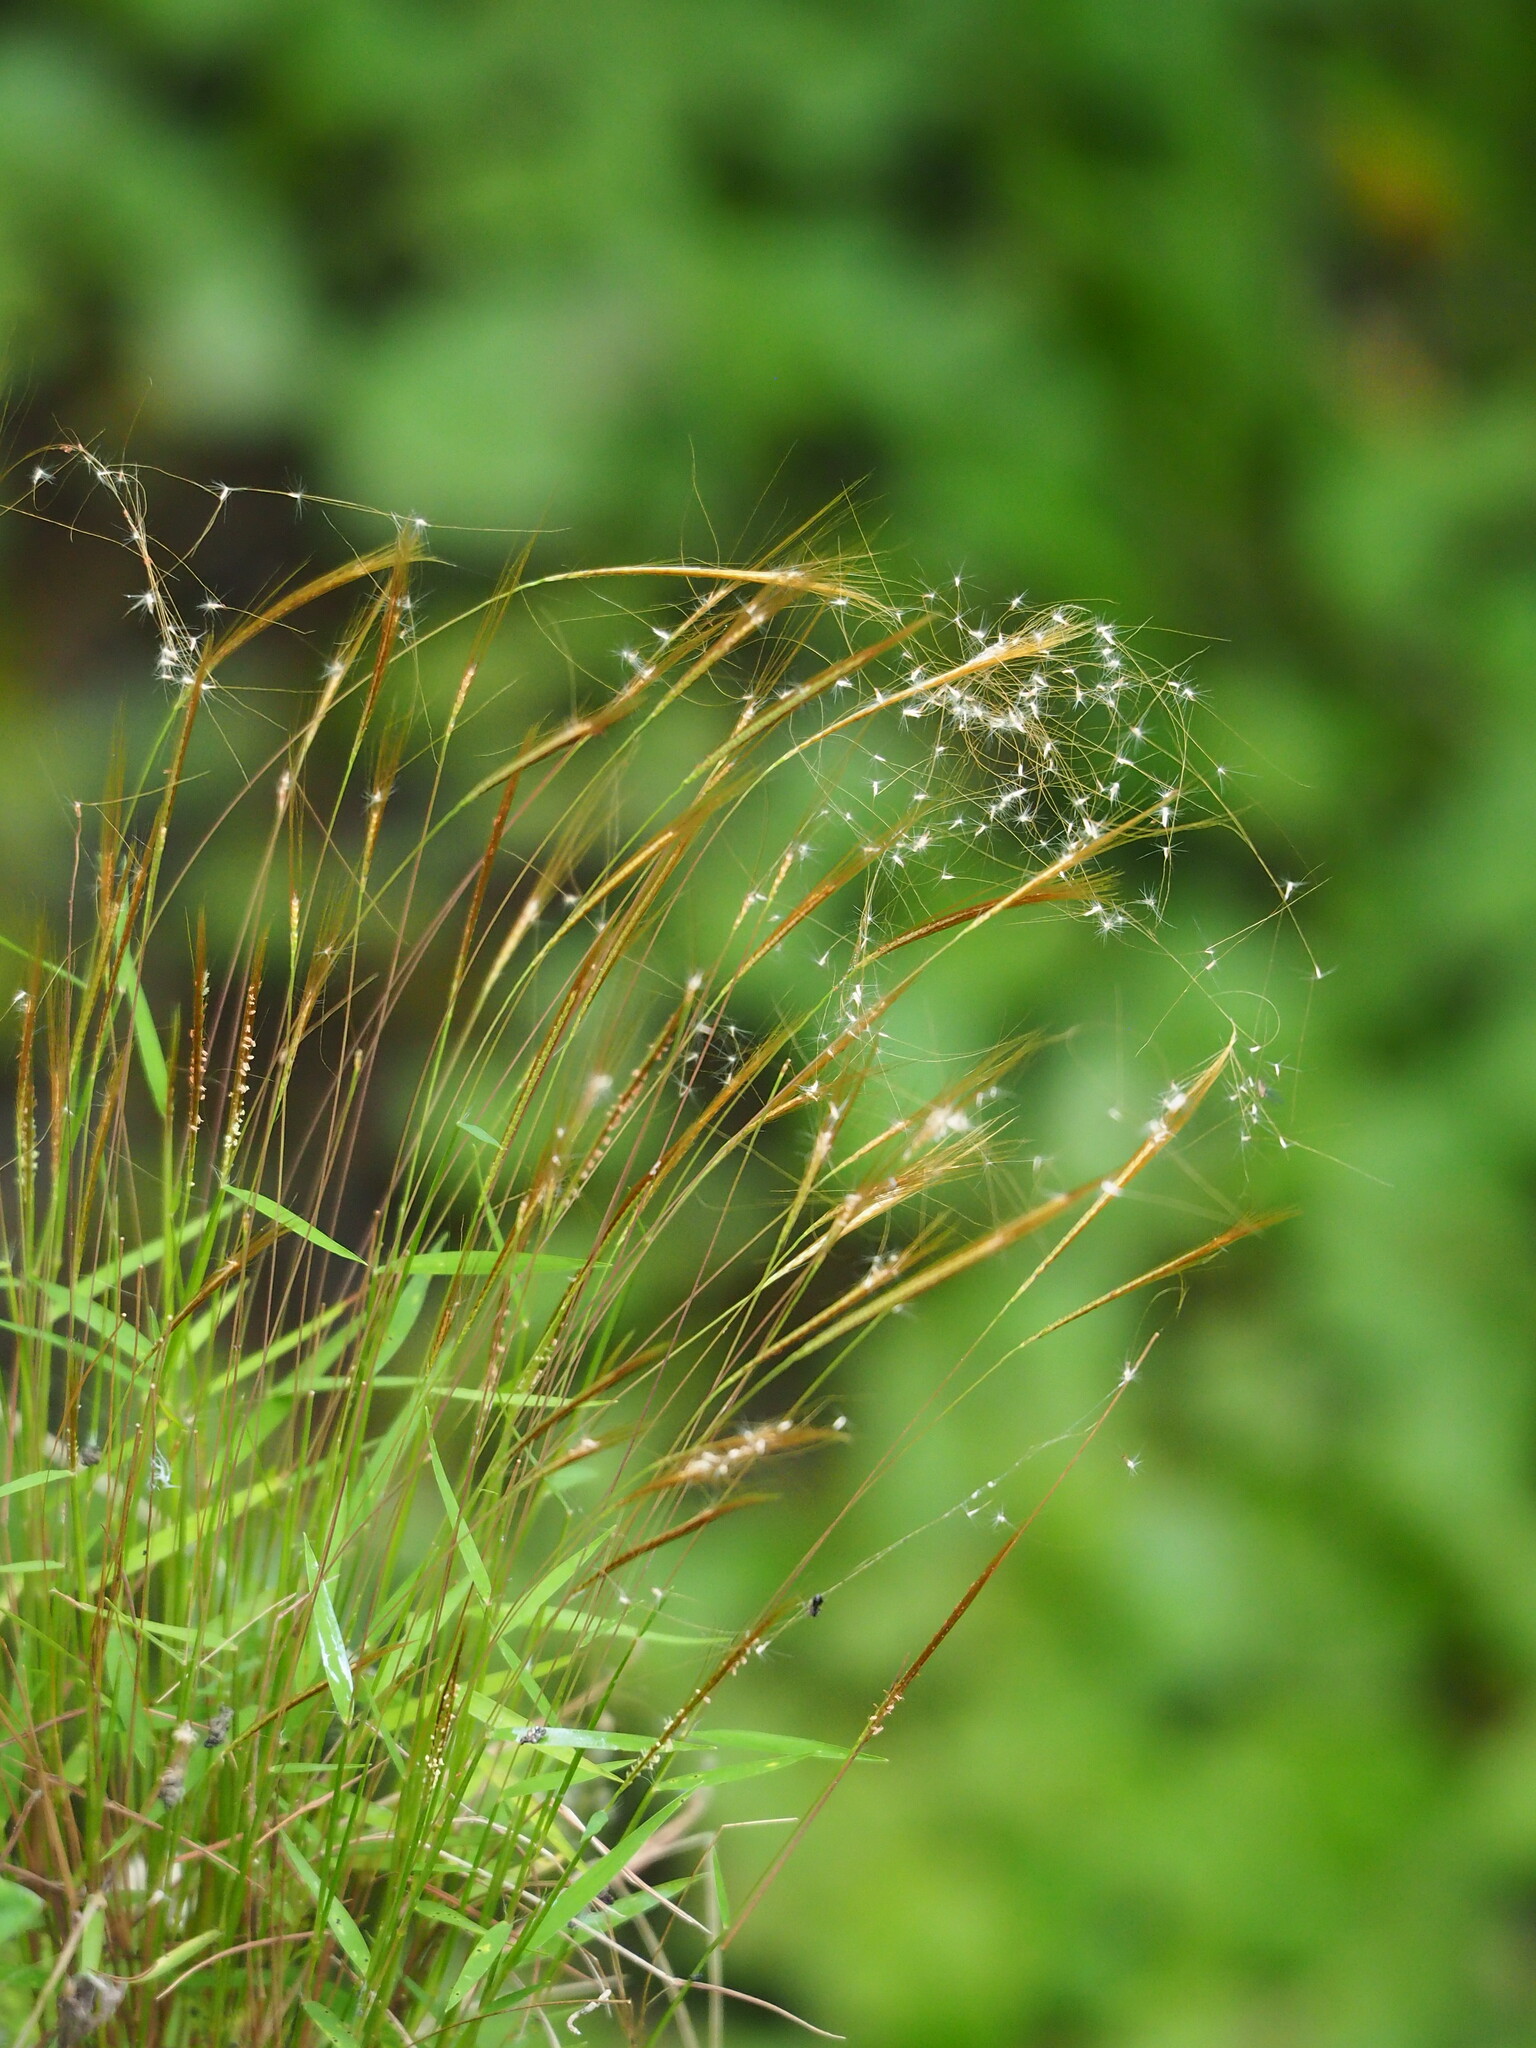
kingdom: Plantae
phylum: Tracheophyta
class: Liliopsida
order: Poales
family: Poaceae
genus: Pogonatherum
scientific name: Pogonatherum crinitum
